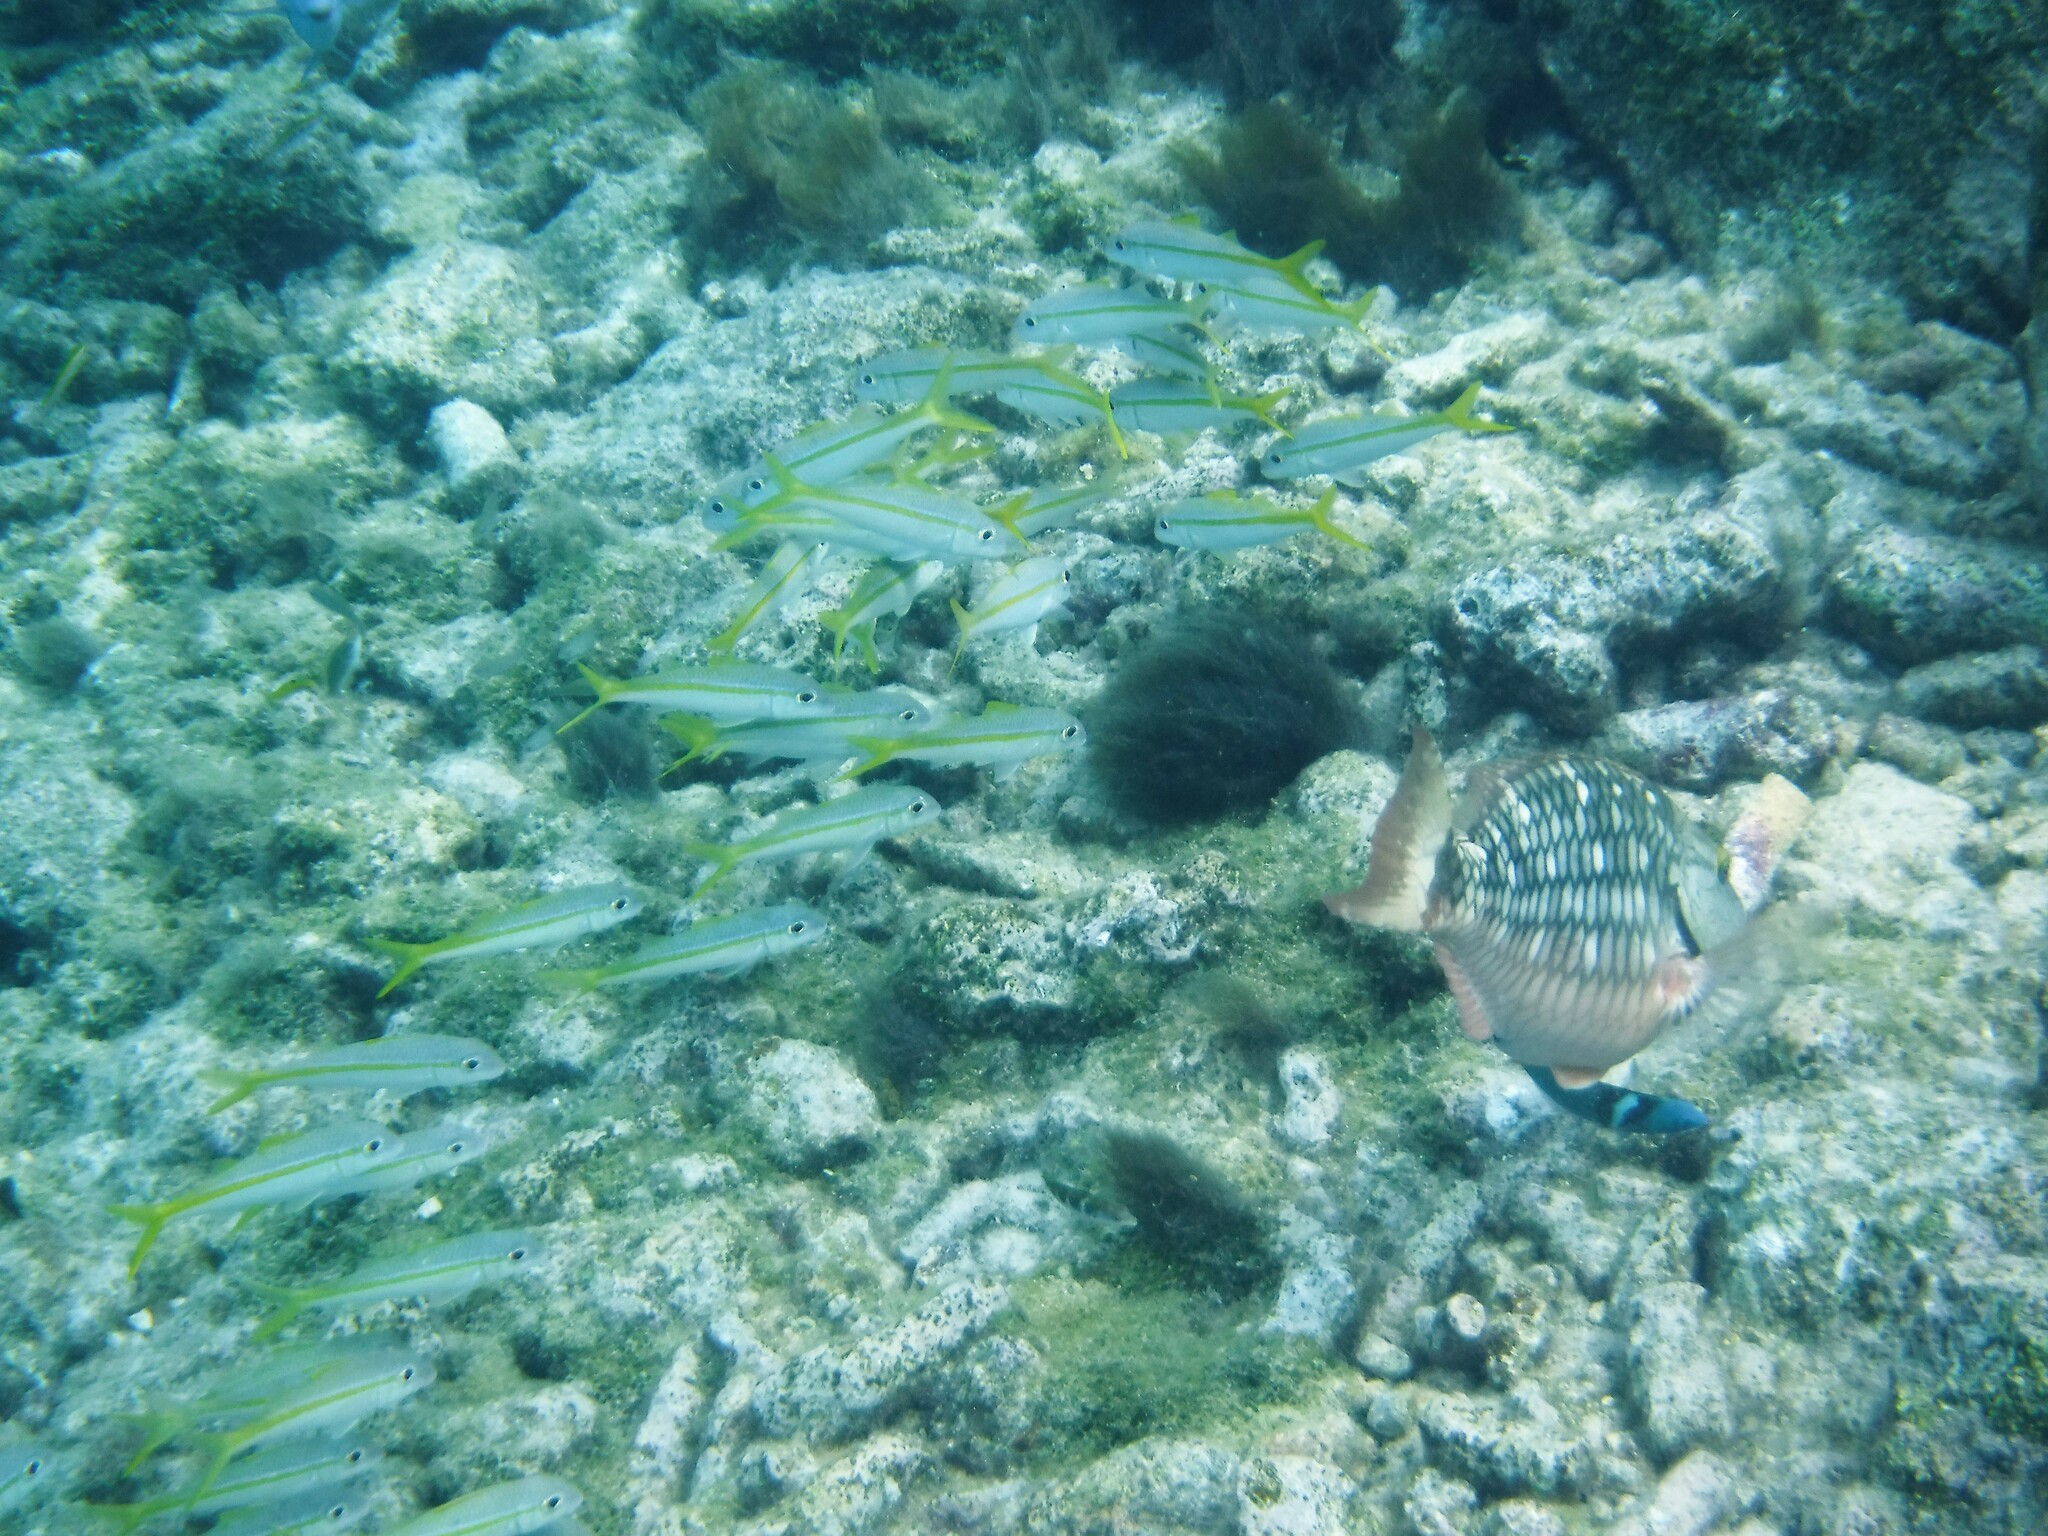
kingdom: Animalia
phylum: Chordata
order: Perciformes
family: Mullidae
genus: Mulloidichthys
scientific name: Mulloidichthys martinicus
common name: Yellow goatfish
